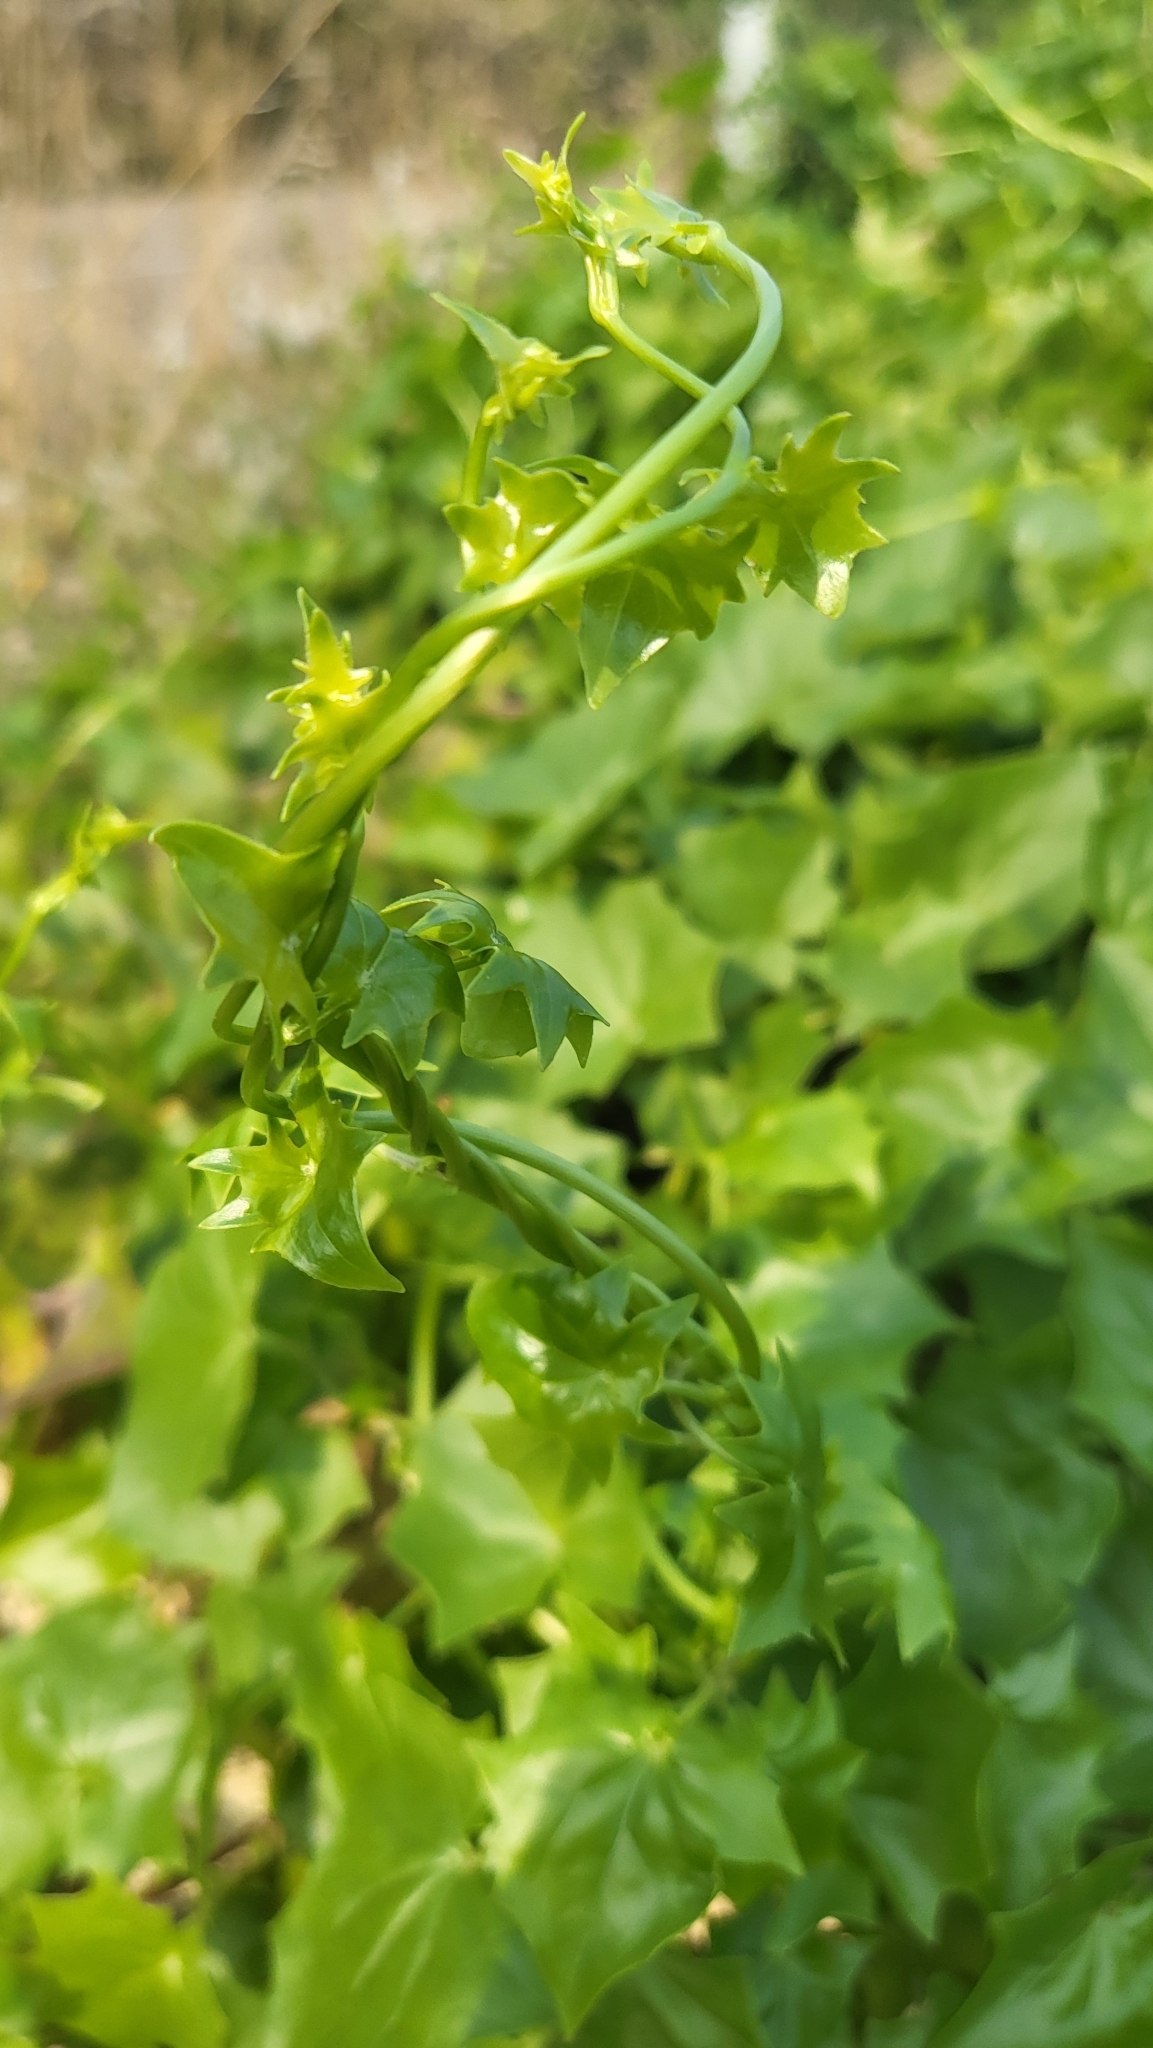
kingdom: Plantae
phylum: Tracheophyta
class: Magnoliopsida
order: Asterales
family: Asteraceae
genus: Delairea
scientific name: Delairea odorata
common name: Cape-ivy
